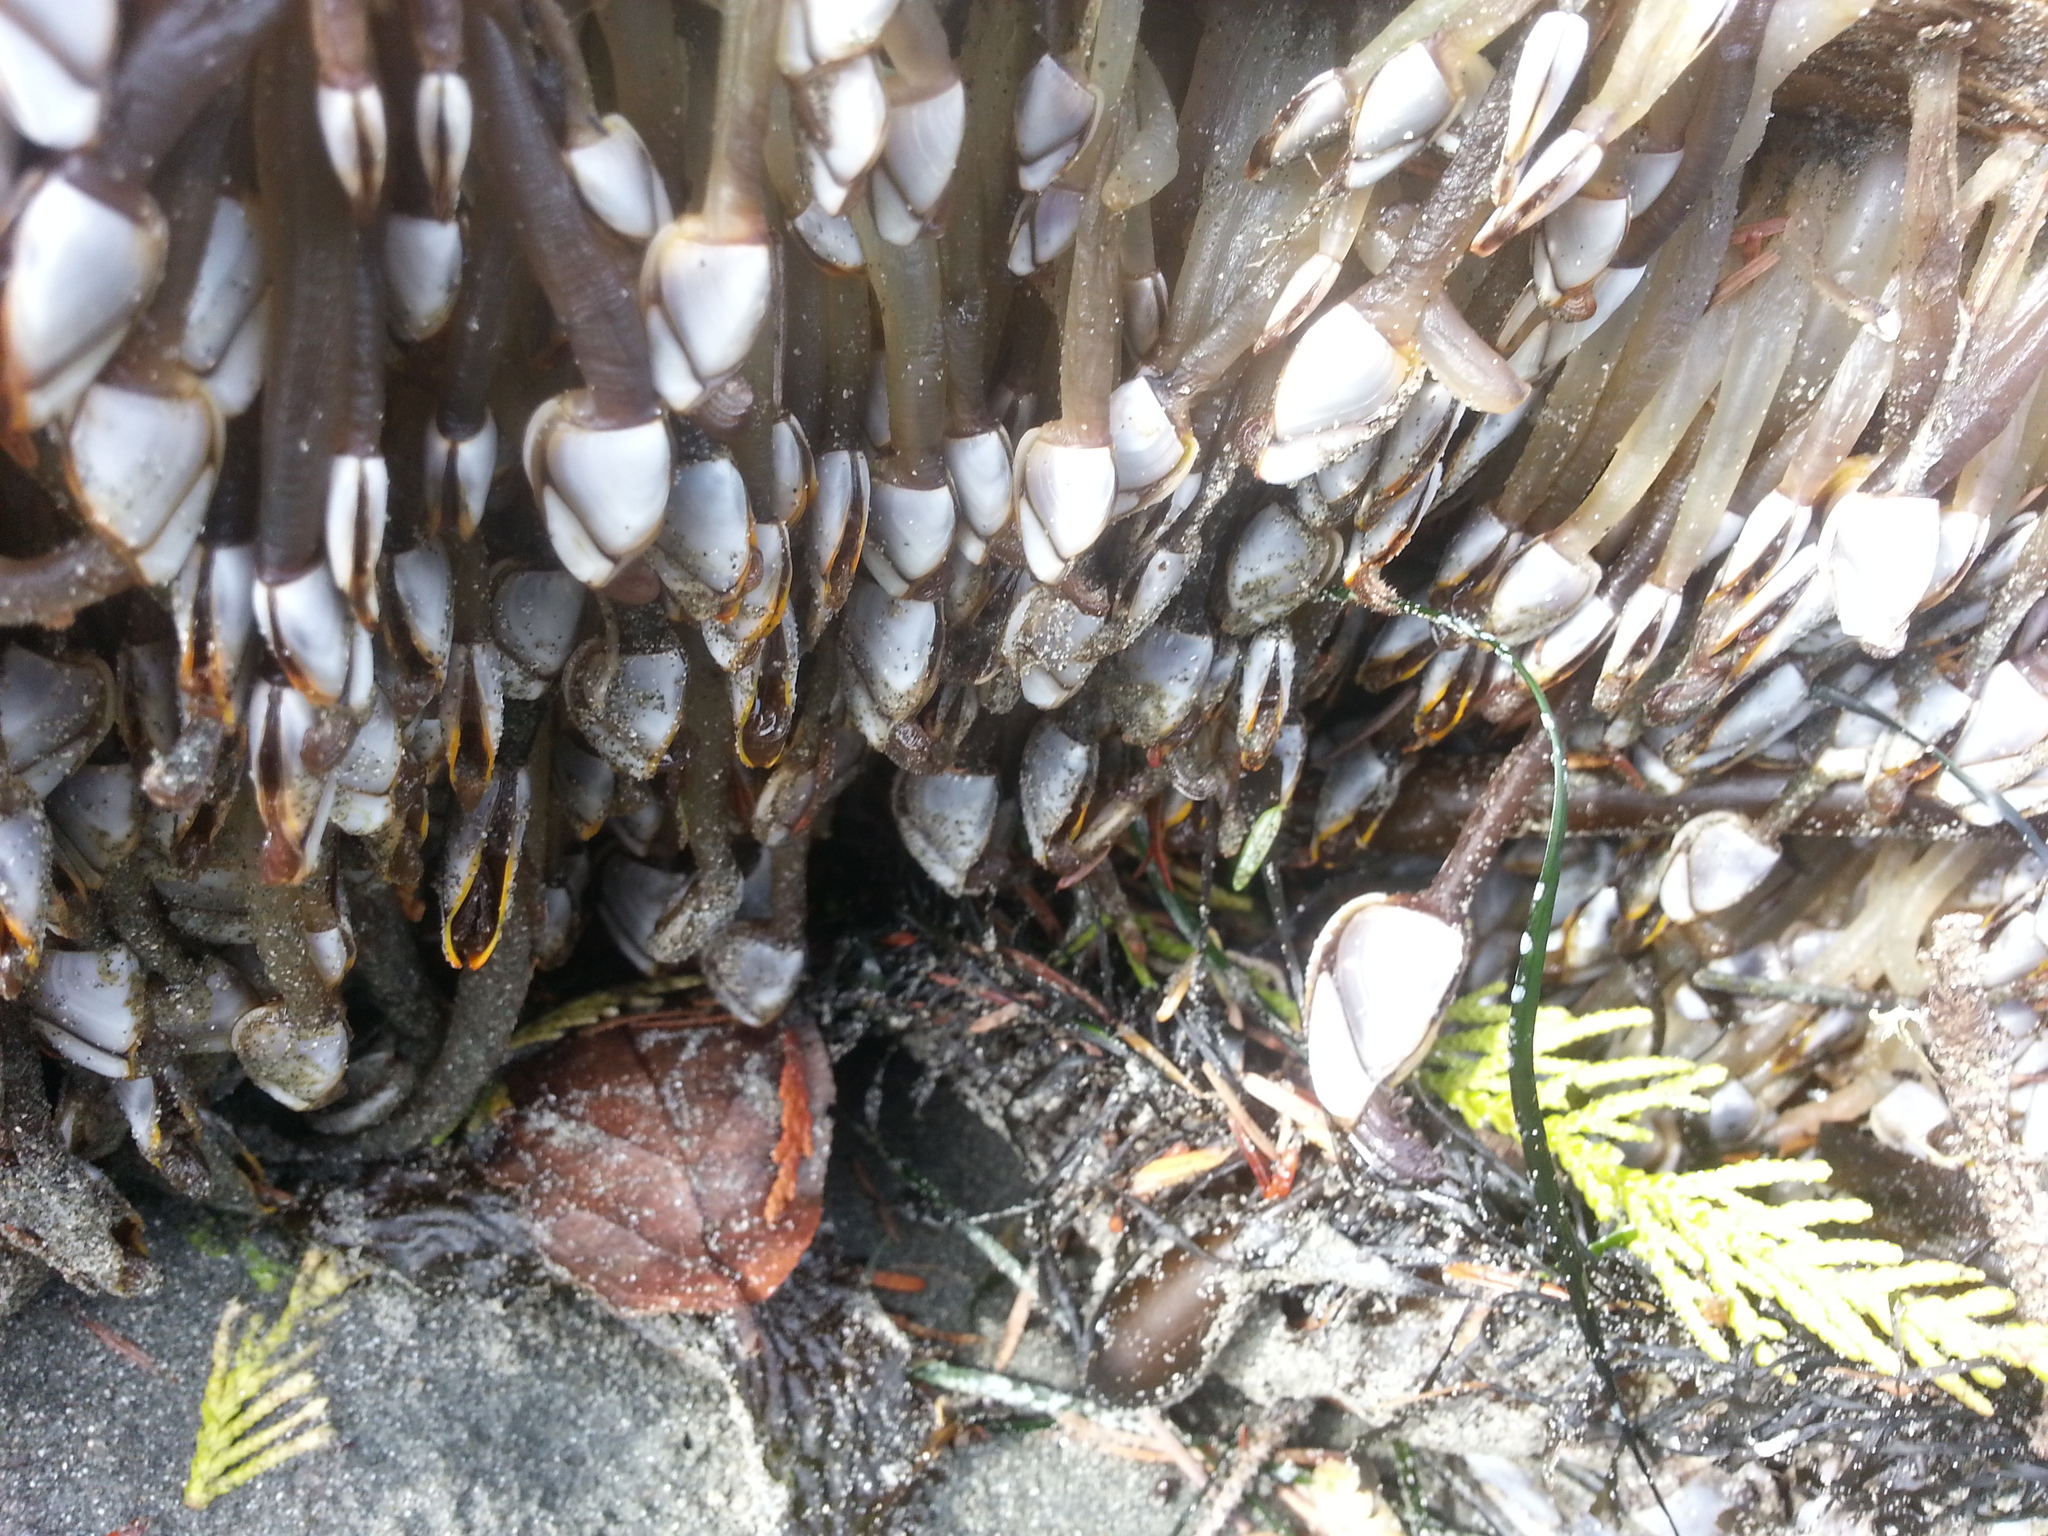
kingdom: Animalia
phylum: Arthropoda
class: Maxillopoda
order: Pedunculata
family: Lepadidae
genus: Lepas
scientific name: Lepas anatifera
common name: Common goose barnacle
